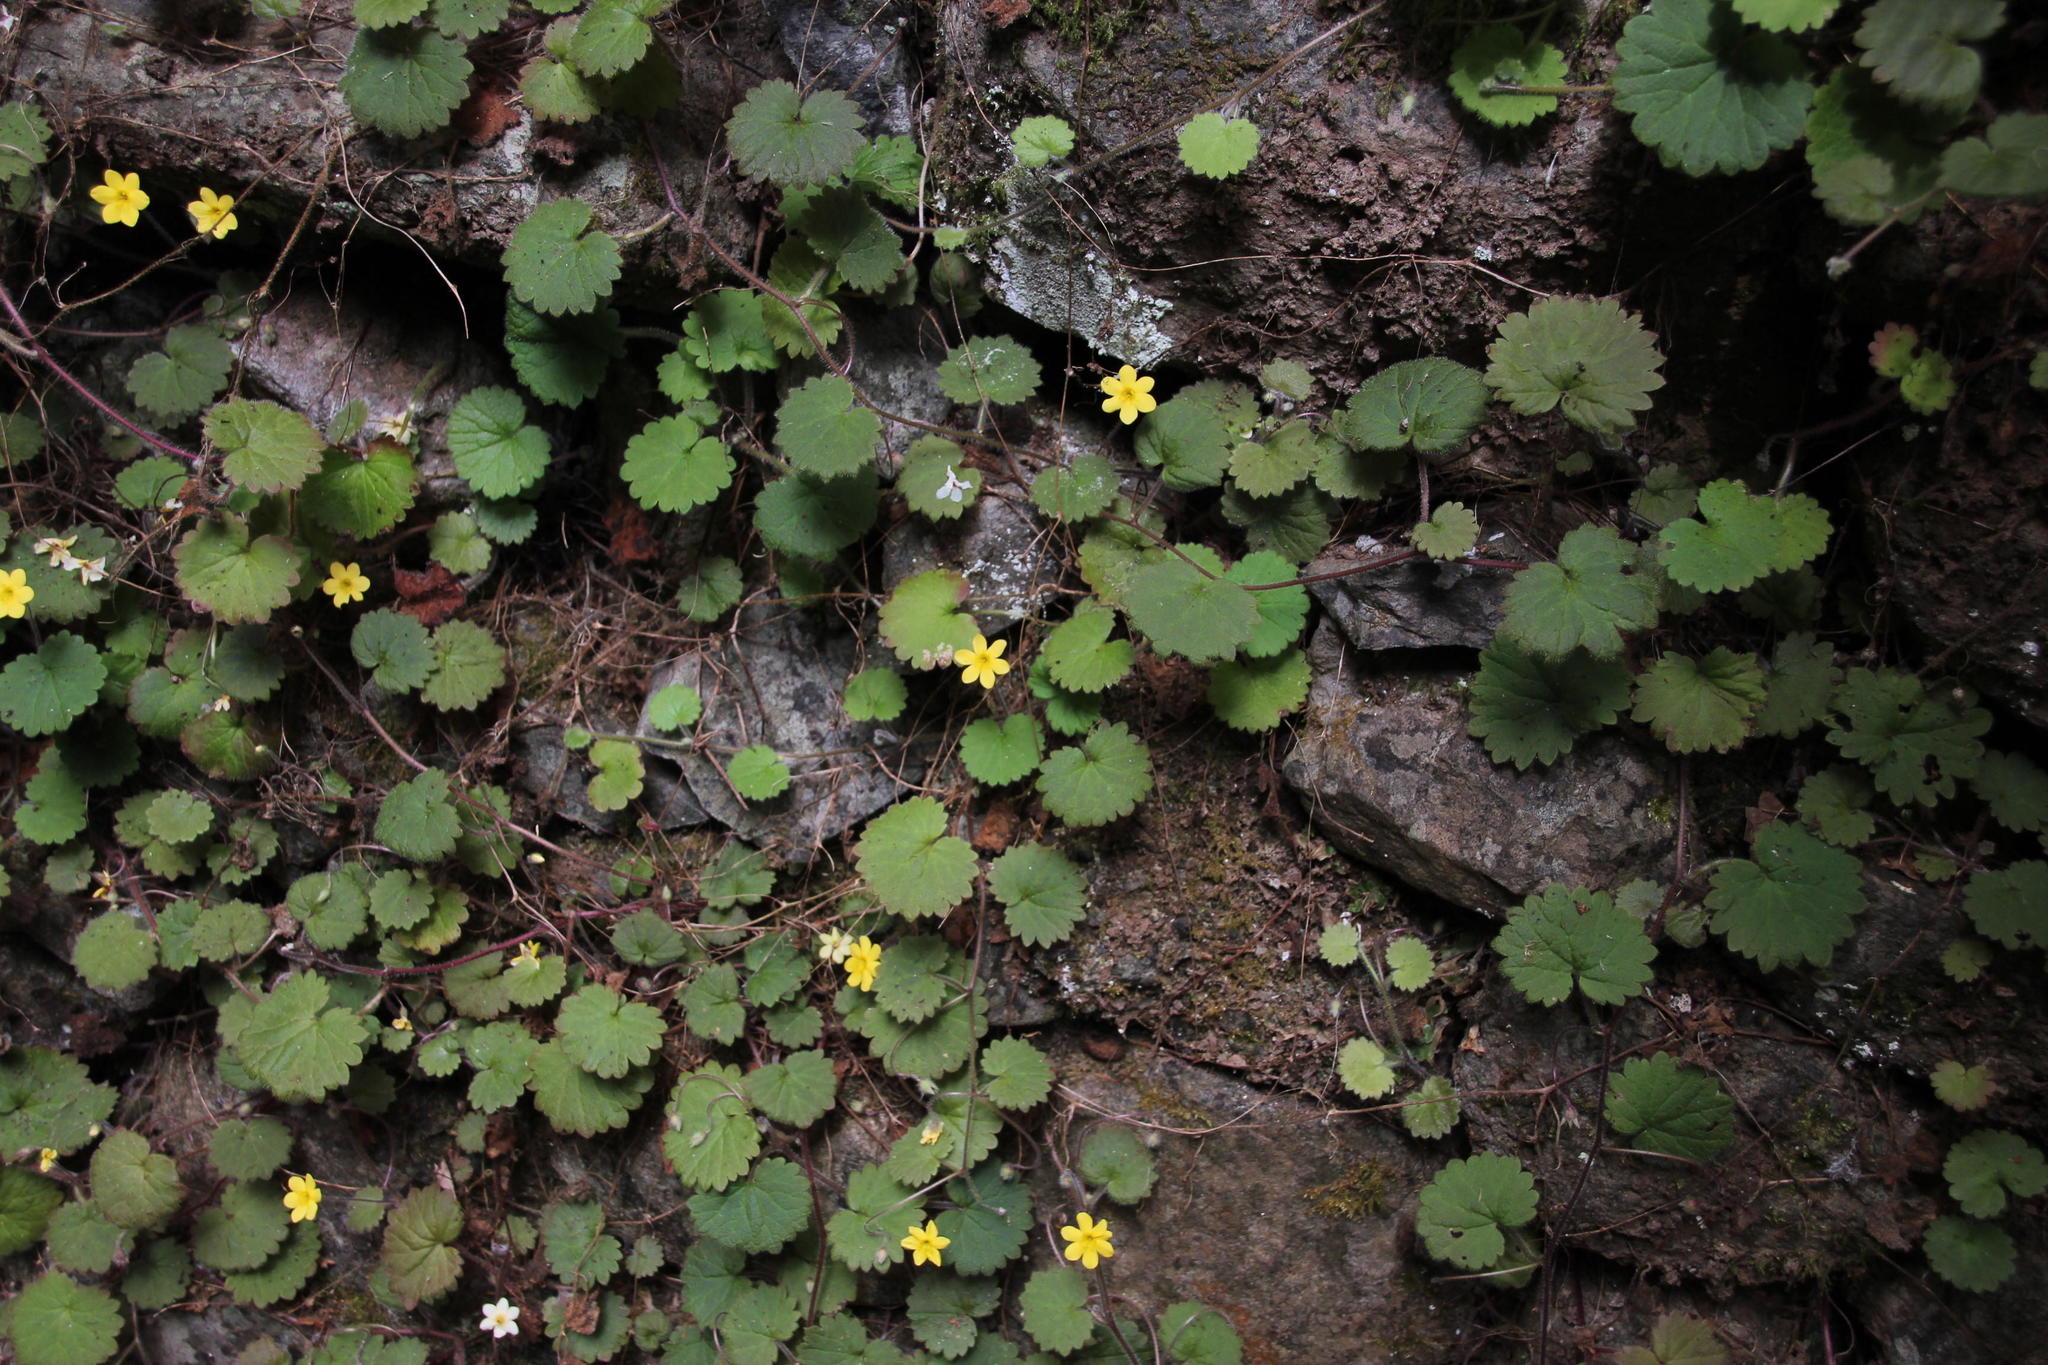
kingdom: Plantae
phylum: Tracheophyta
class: Magnoliopsida
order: Lamiales
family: Plantaginaceae
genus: Sibthorpia
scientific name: Sibthorpia peregrina
